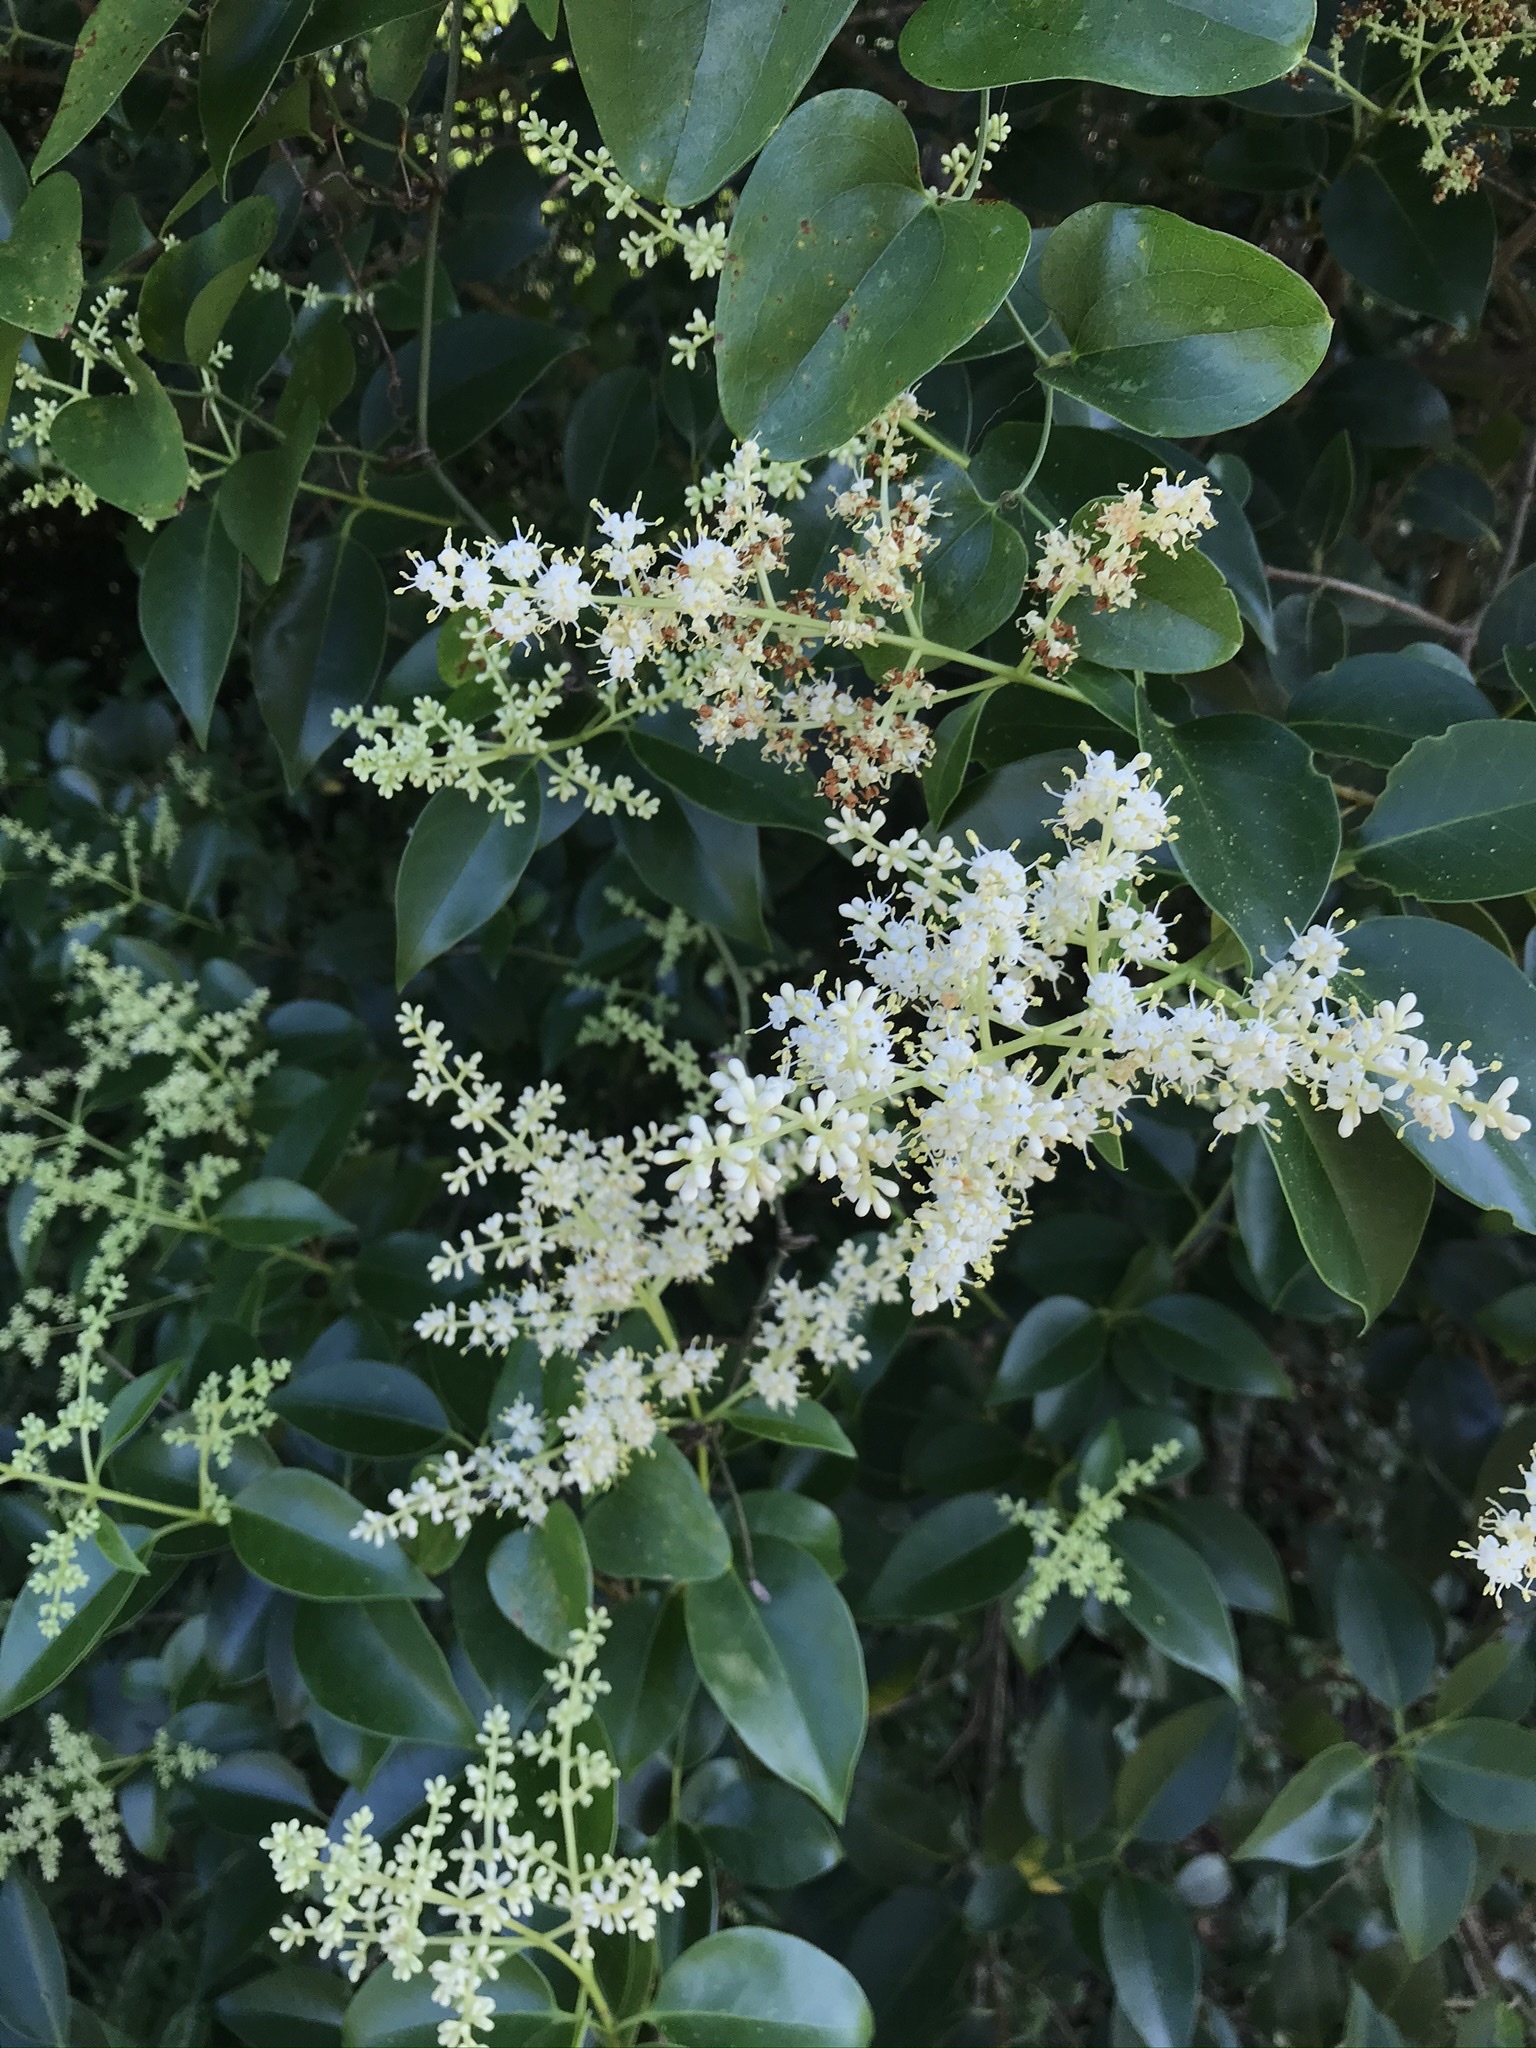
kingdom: Plantae
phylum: Tracheophyta
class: Magnoliopsida
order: Lamiales
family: Oleaceae
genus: Ligustrum
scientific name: Ligustrum lucidum
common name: Glossy privet
